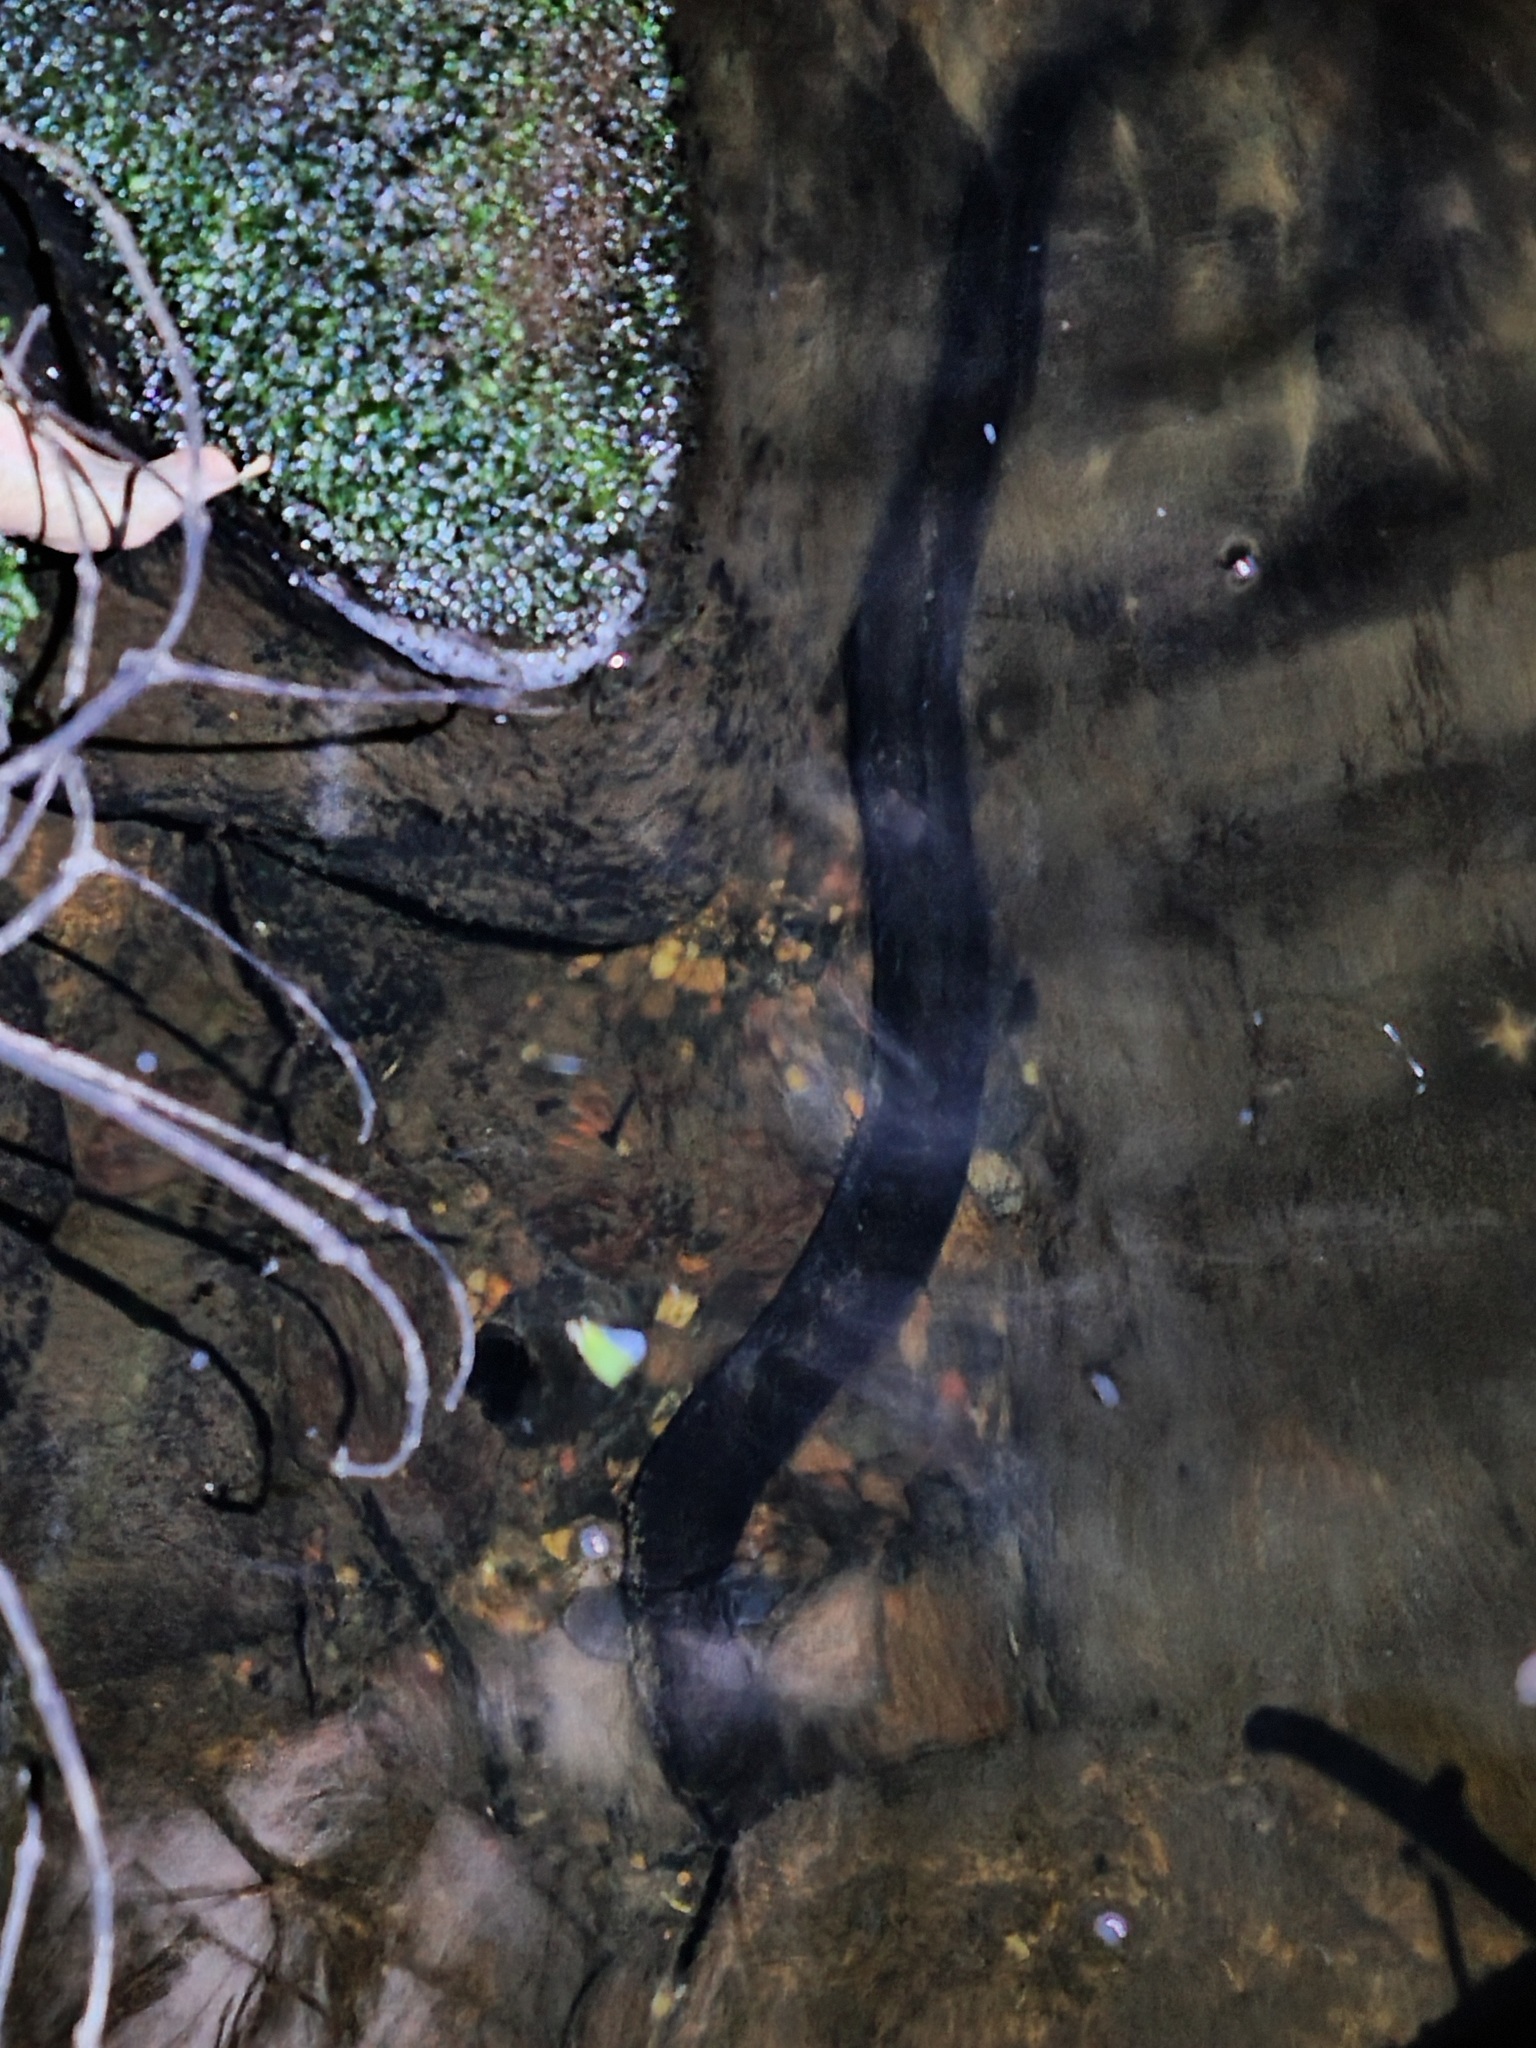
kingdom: Animalia
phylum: Chordata
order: Anguilliformes
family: Anguillidae
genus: Anguilla
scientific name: Anguilla reinhardtii
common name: Longfin eel
